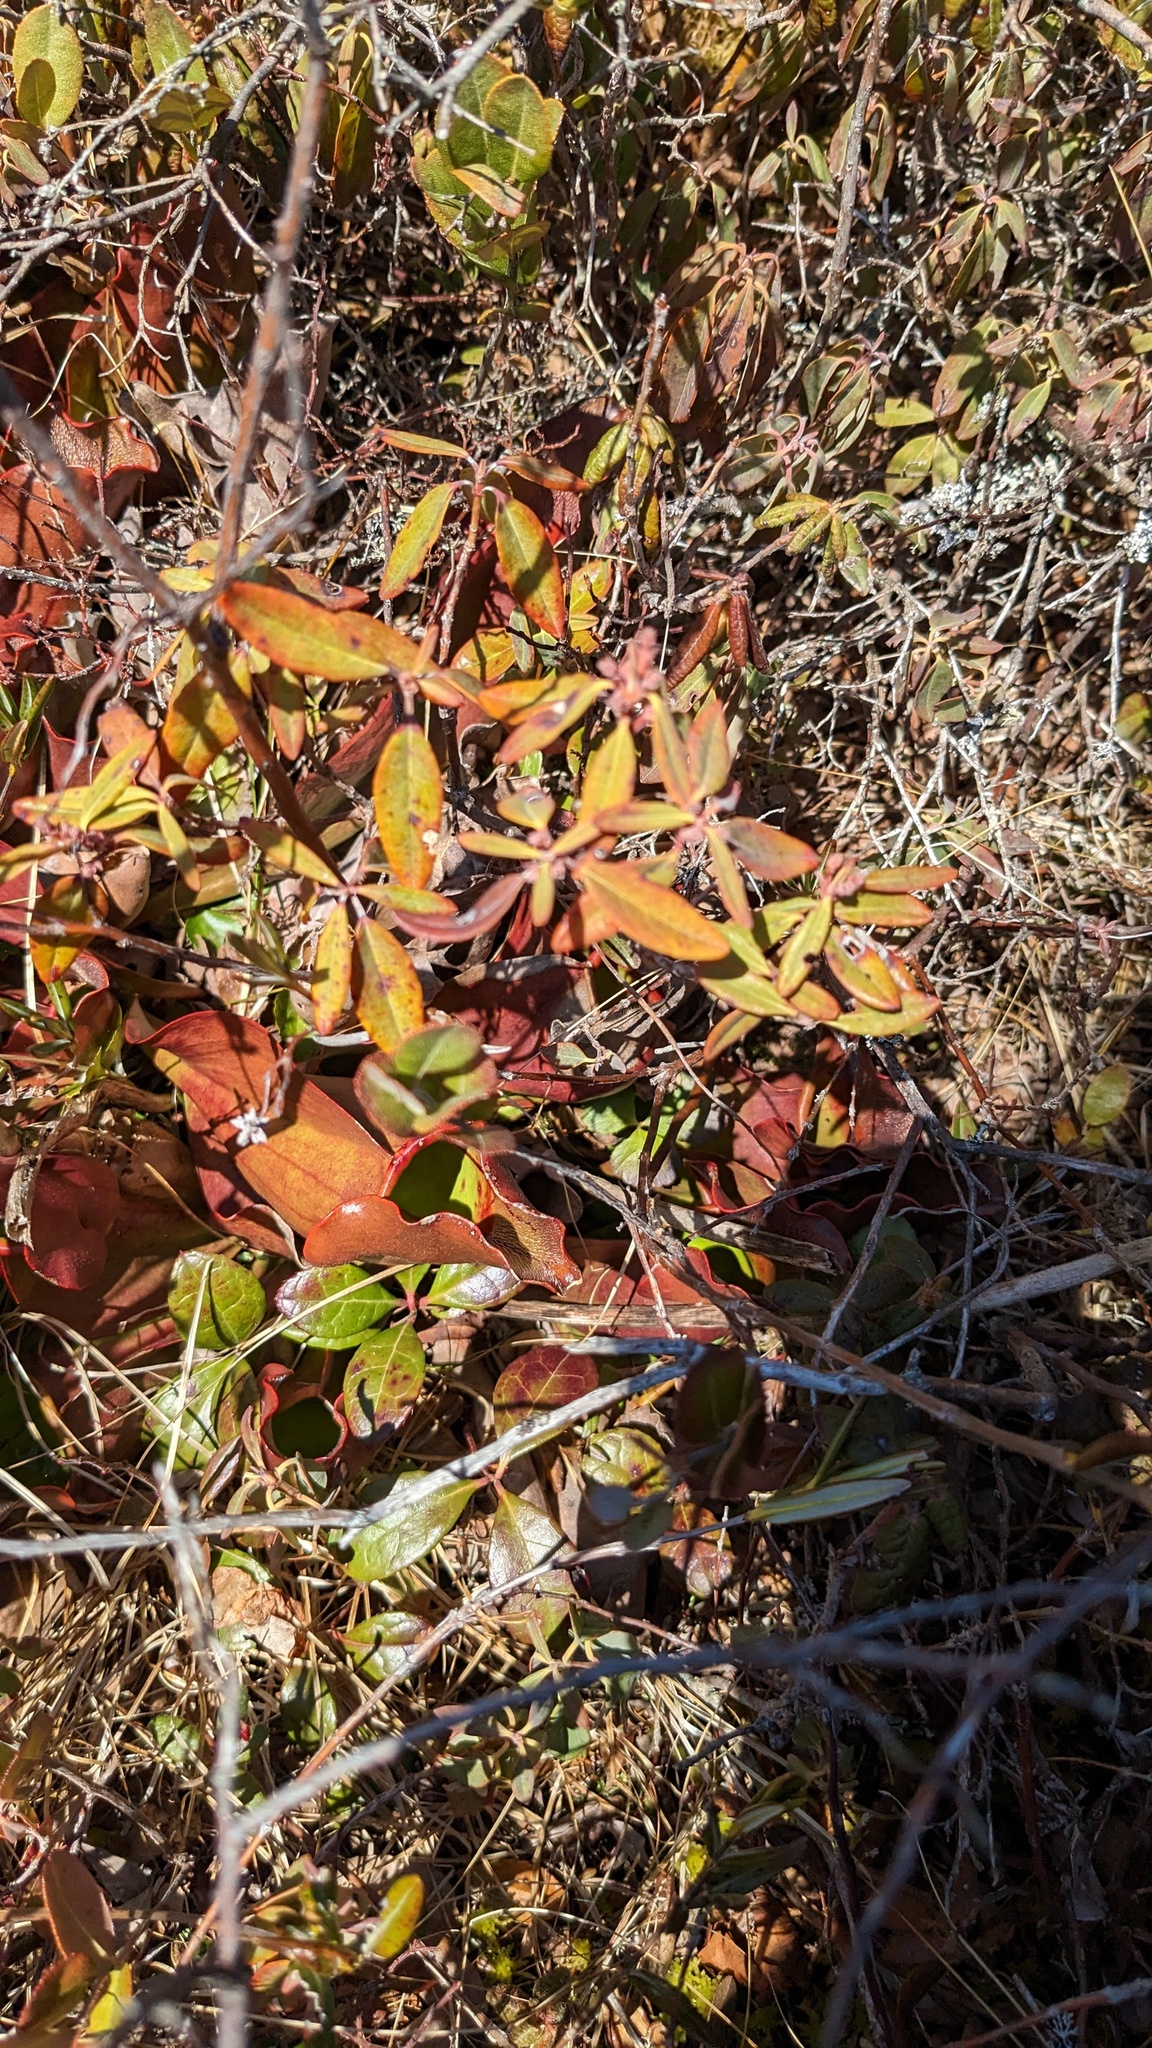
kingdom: Plantae
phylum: Tracheophyta
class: Magnoliopsida
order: Ericales
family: Ericaceae
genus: Kalmia
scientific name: Kalmia angustifolia
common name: Sheep-laurel
